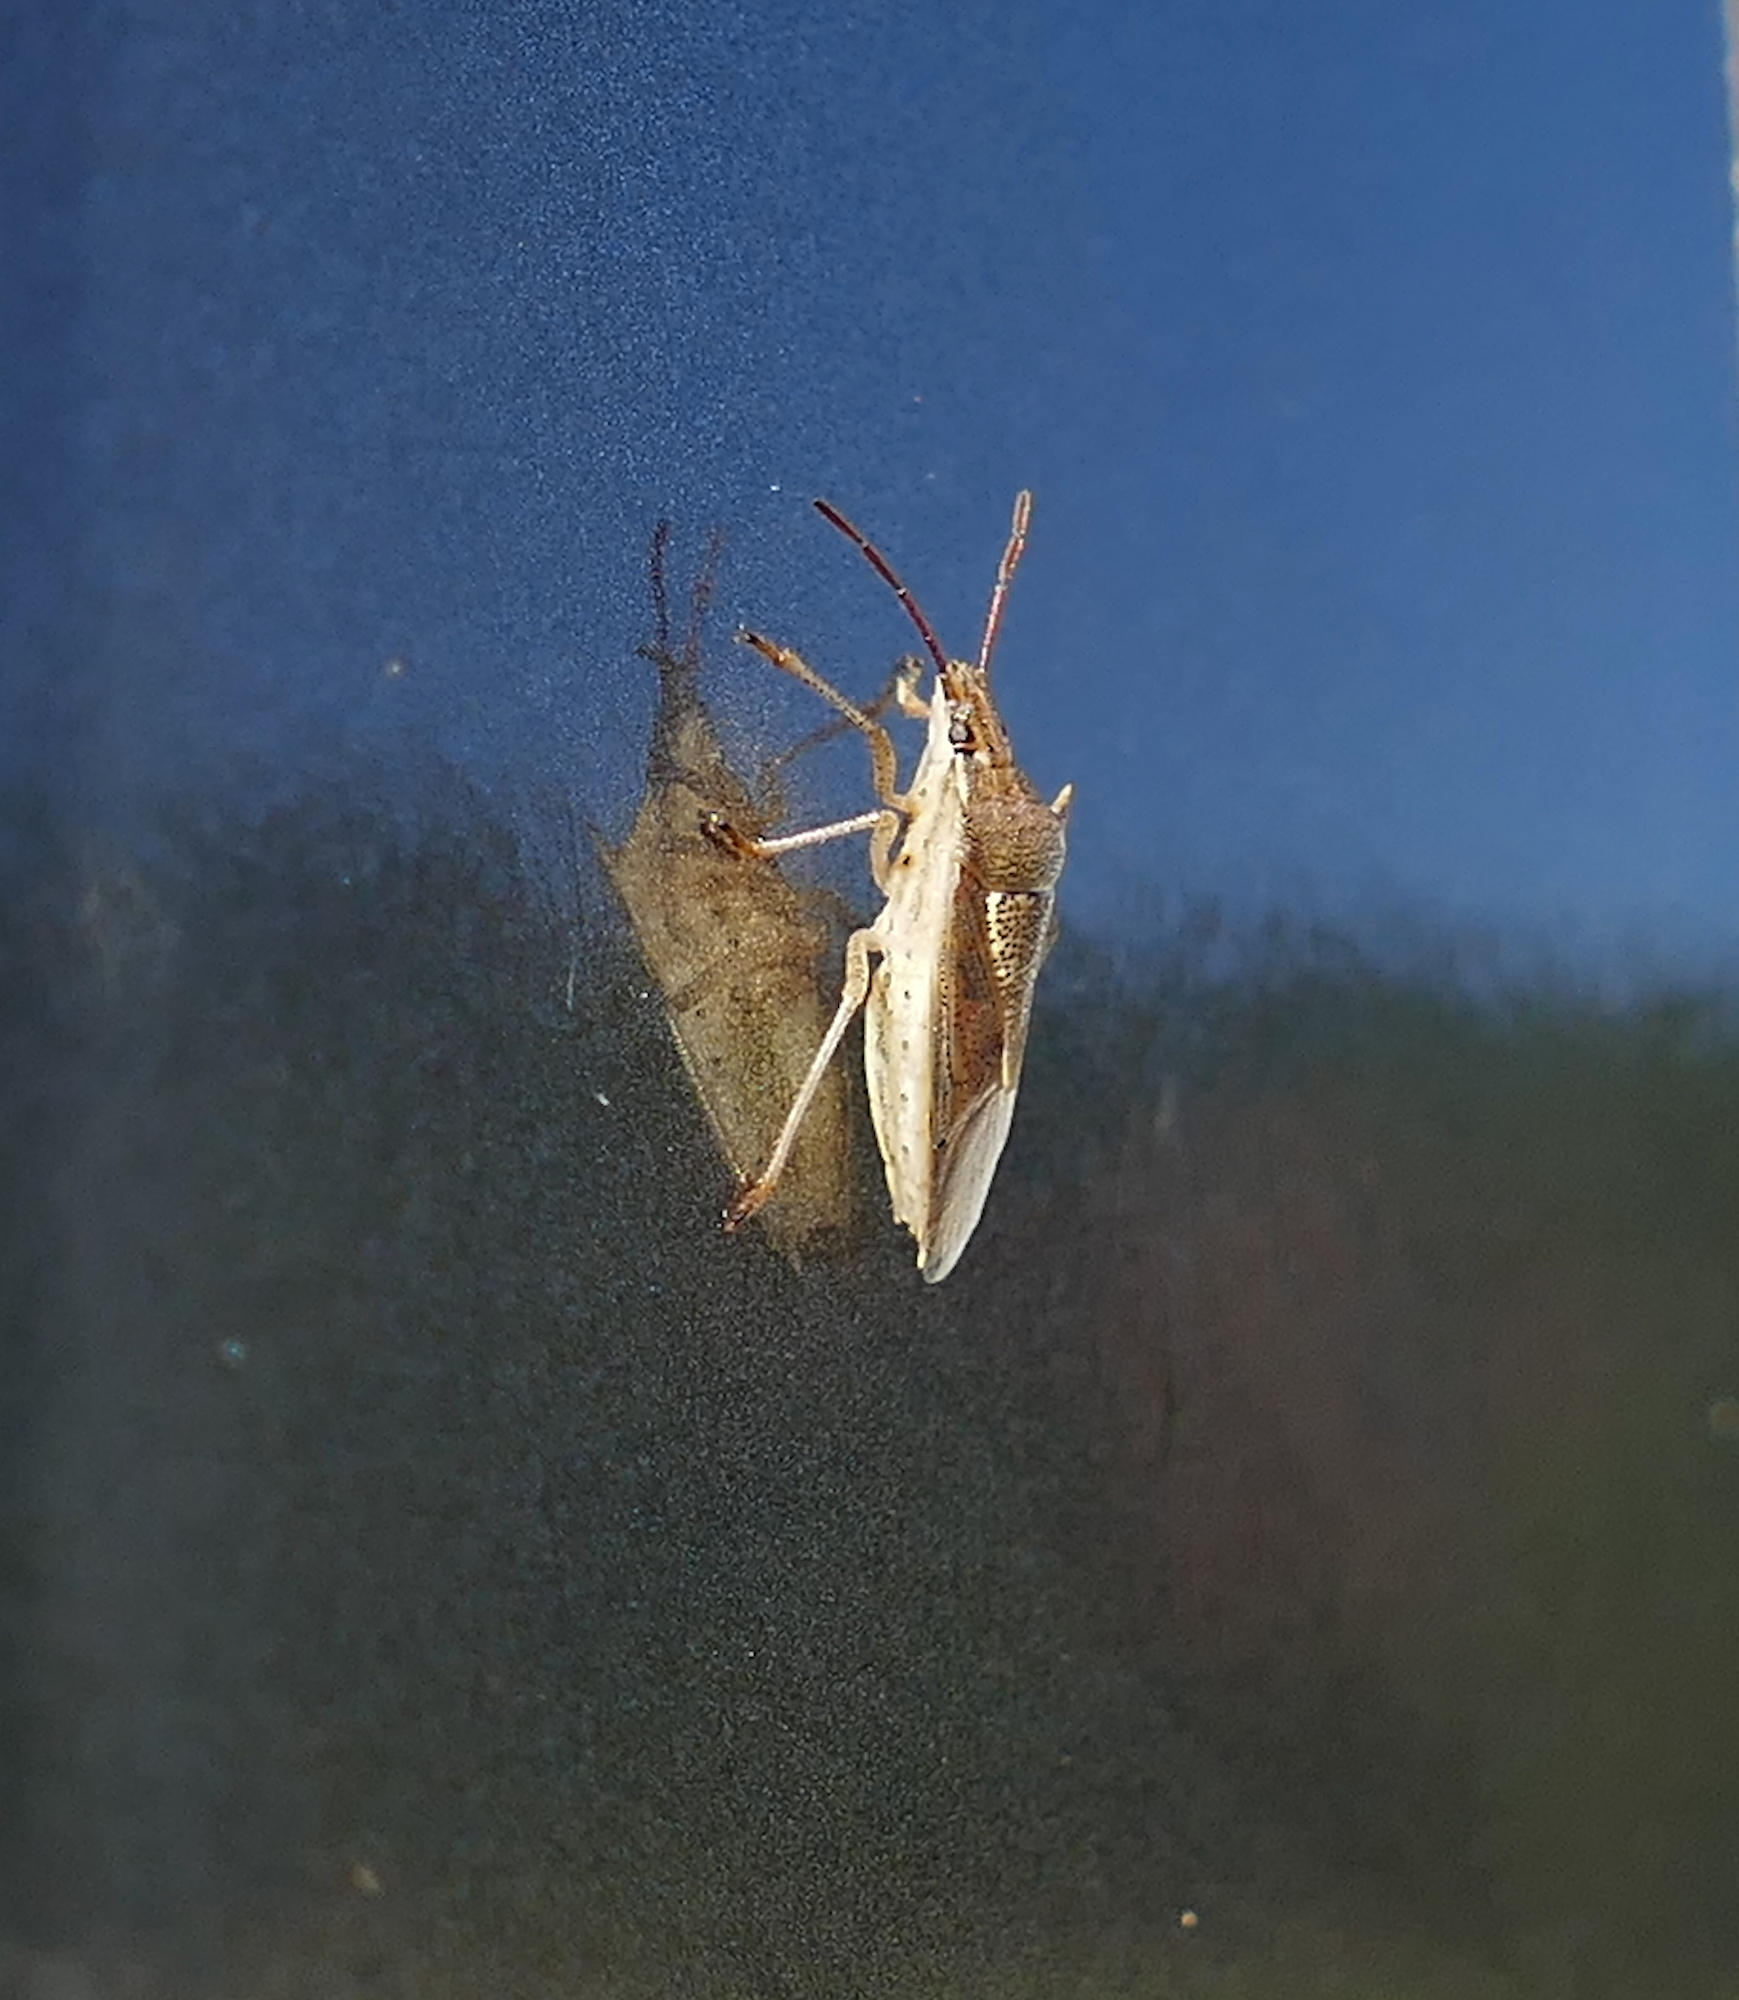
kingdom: Animalia
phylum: Arthropoda
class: Insecta
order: Hemiptera
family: Pentatomidae
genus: Oebalus
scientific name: Oebalus pugnax
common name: Rice stink bug
